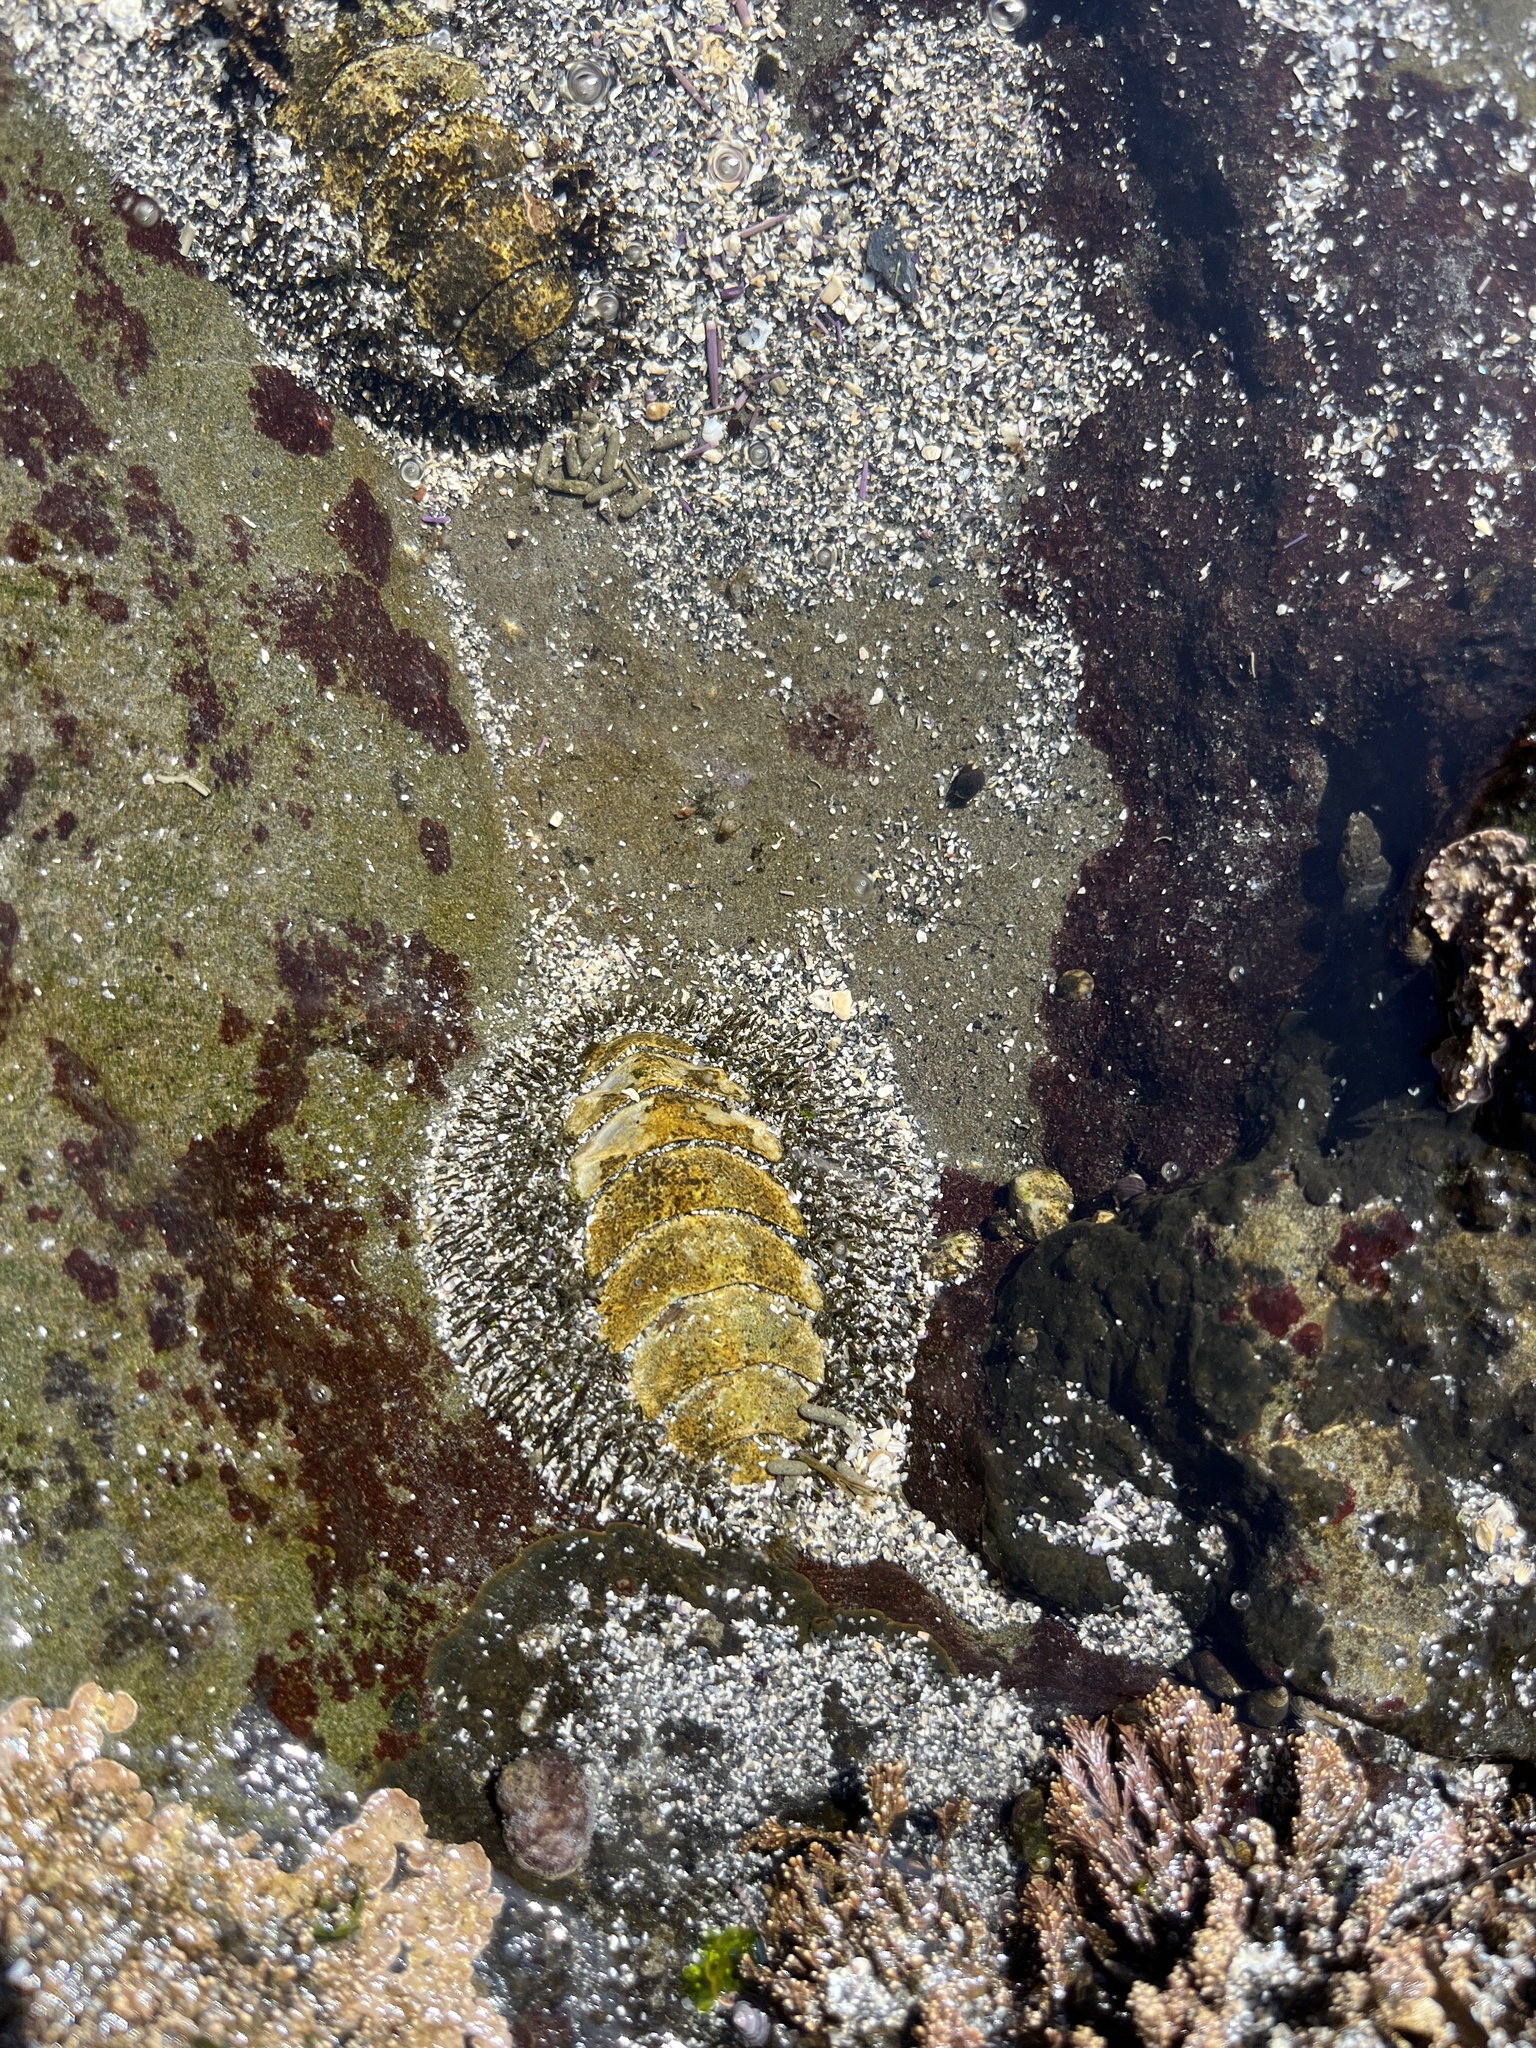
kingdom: Animalia
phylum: Mollusca
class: Polyplacophora
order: Chitonida
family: Mopaliidae
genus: Mopalia
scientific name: Mopalia muscosa
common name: Mossy chiton
